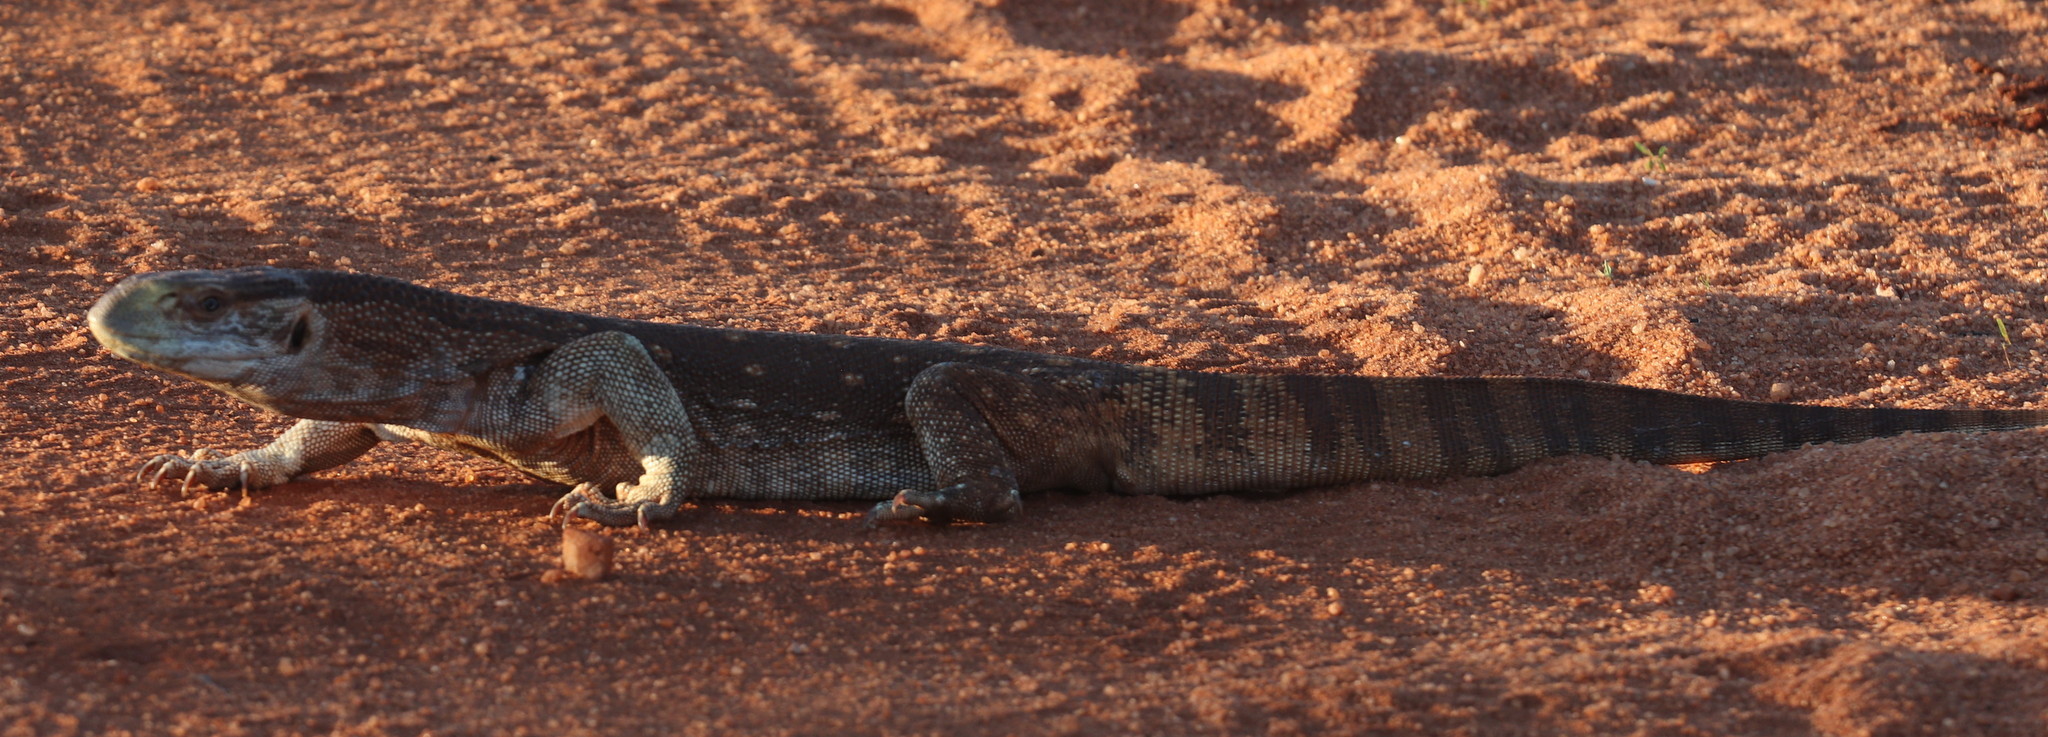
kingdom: Animalia
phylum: Chordata
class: Squamata
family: Varanidae
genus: Varanus
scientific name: Varanus albigularis
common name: White-throated monitor
